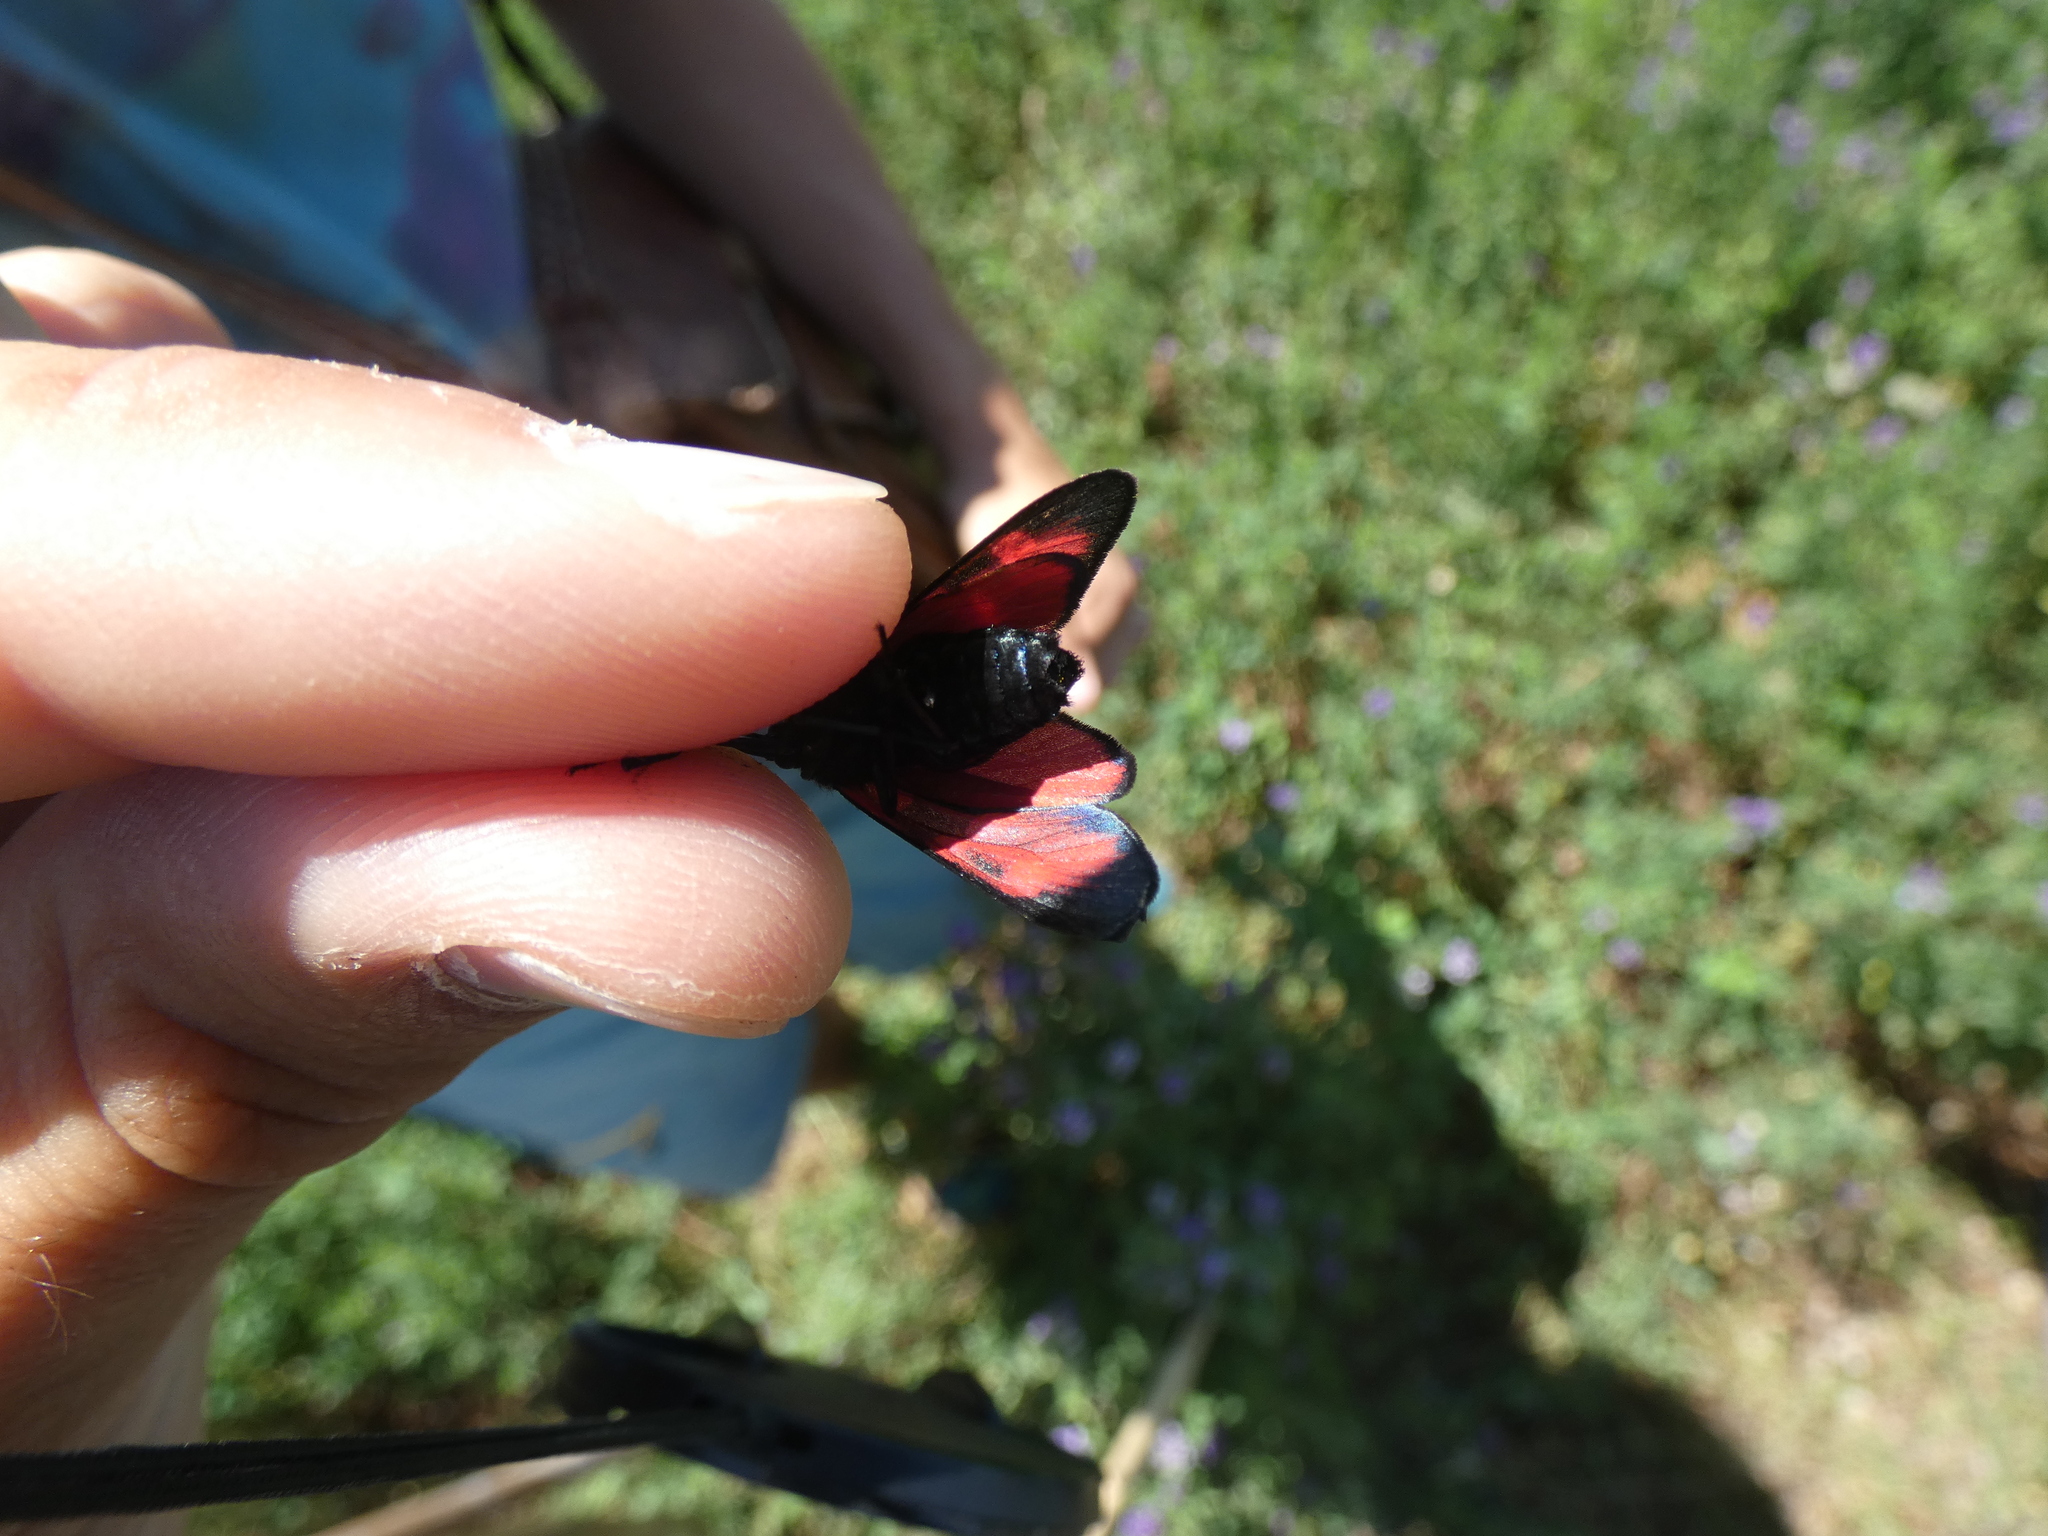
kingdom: Animalia
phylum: Arthropoda
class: Insecta
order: Lepidoptera
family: Zygaenidae
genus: Zygaena
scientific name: Zygaena transalpina
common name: Southern six spot burnet
